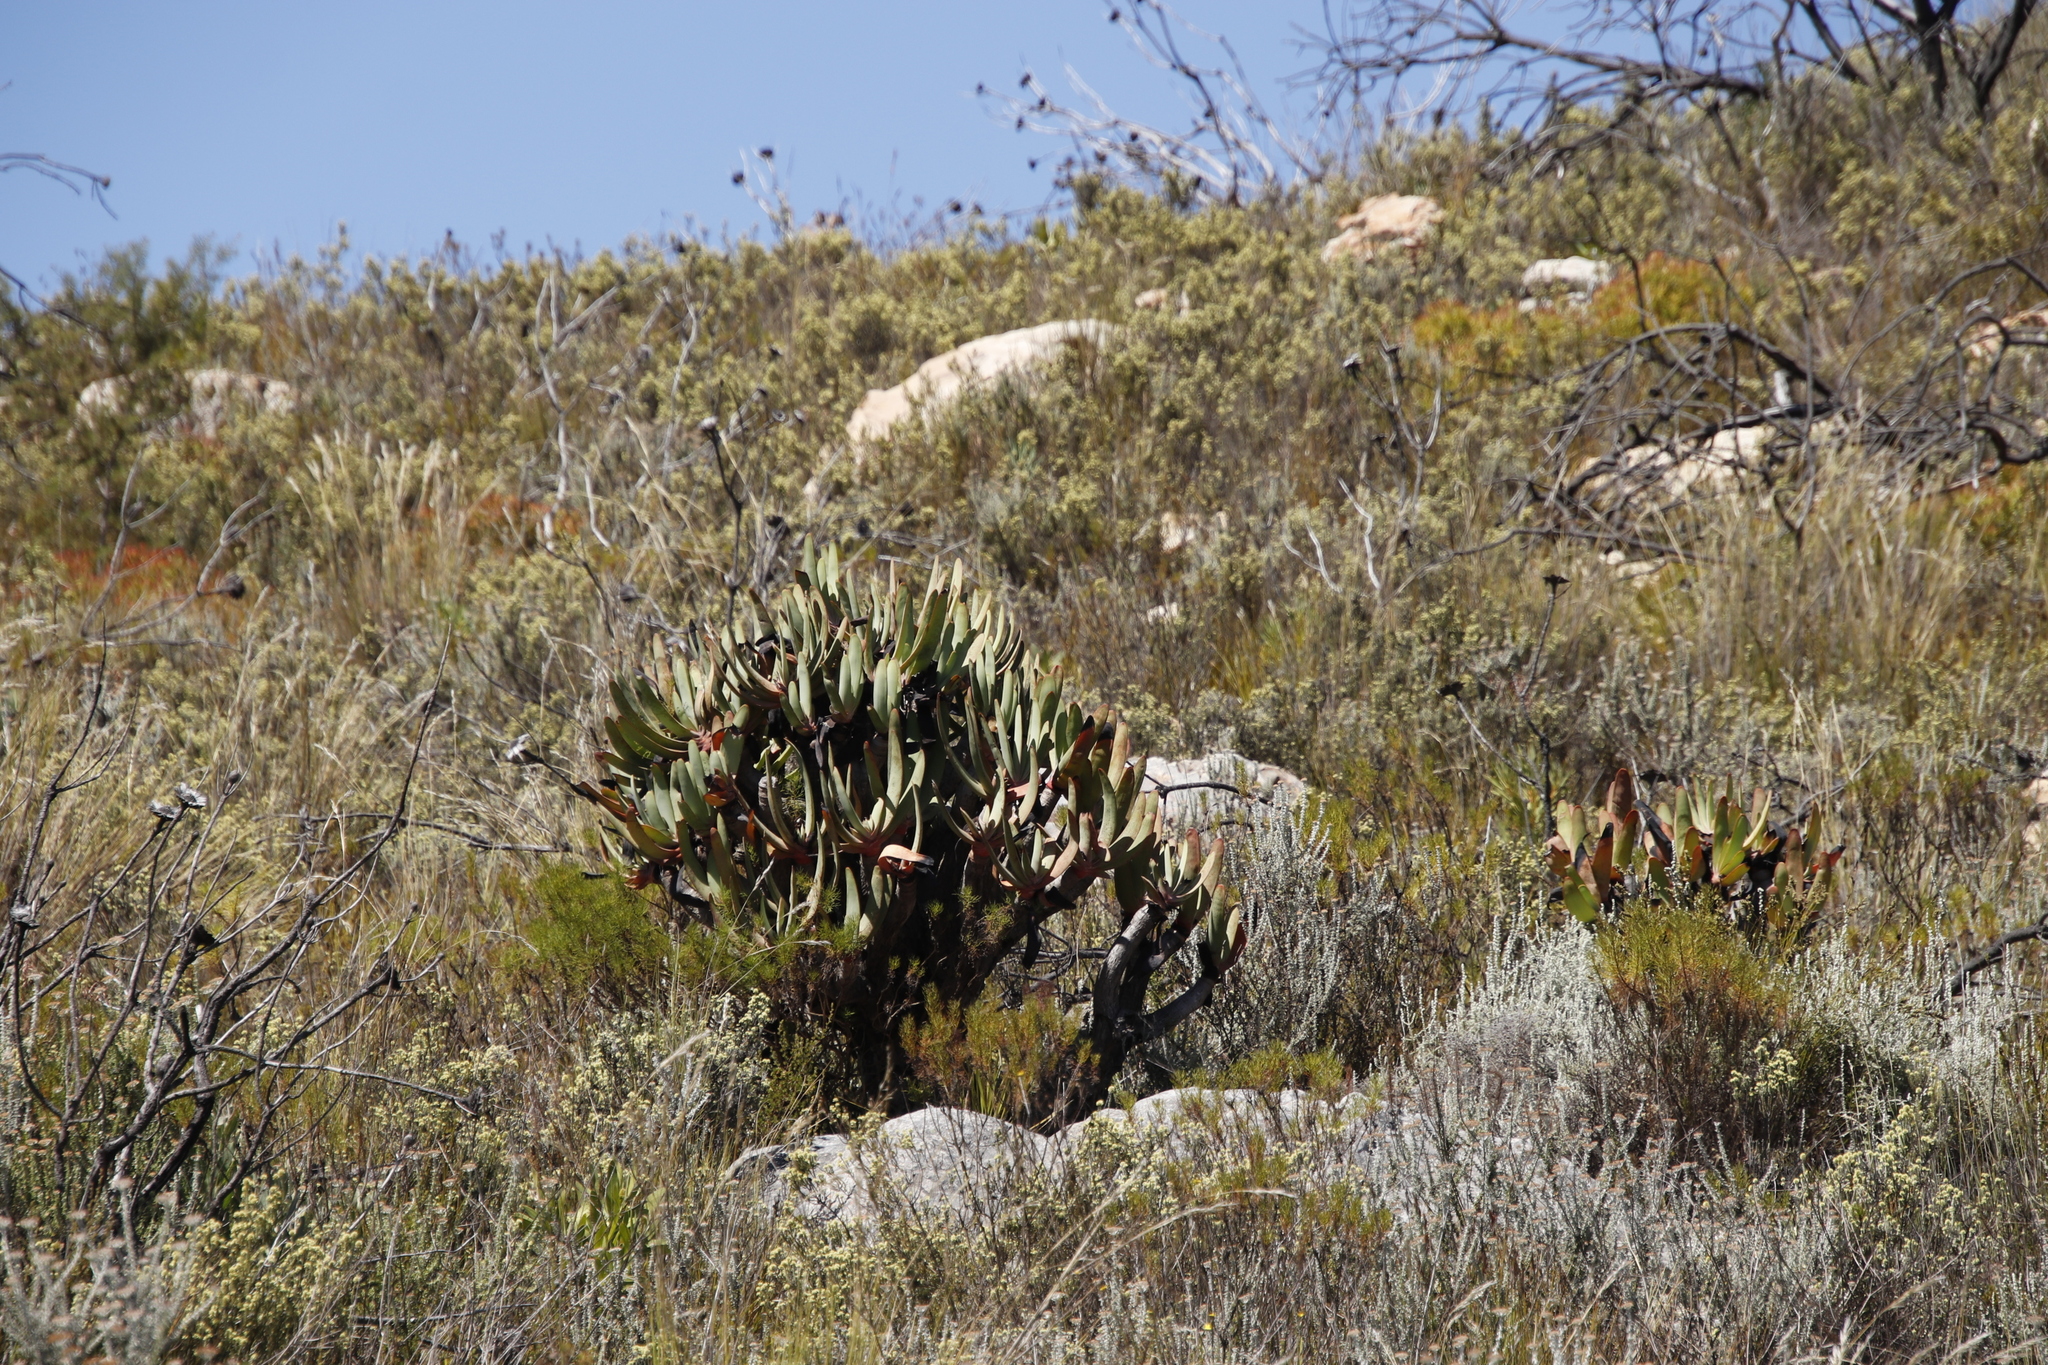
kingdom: Plantae
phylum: Tracheophyta
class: Liliopsida
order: Asparagales
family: Asphodelaceae
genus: Kumara
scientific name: Kumara plicatilis
